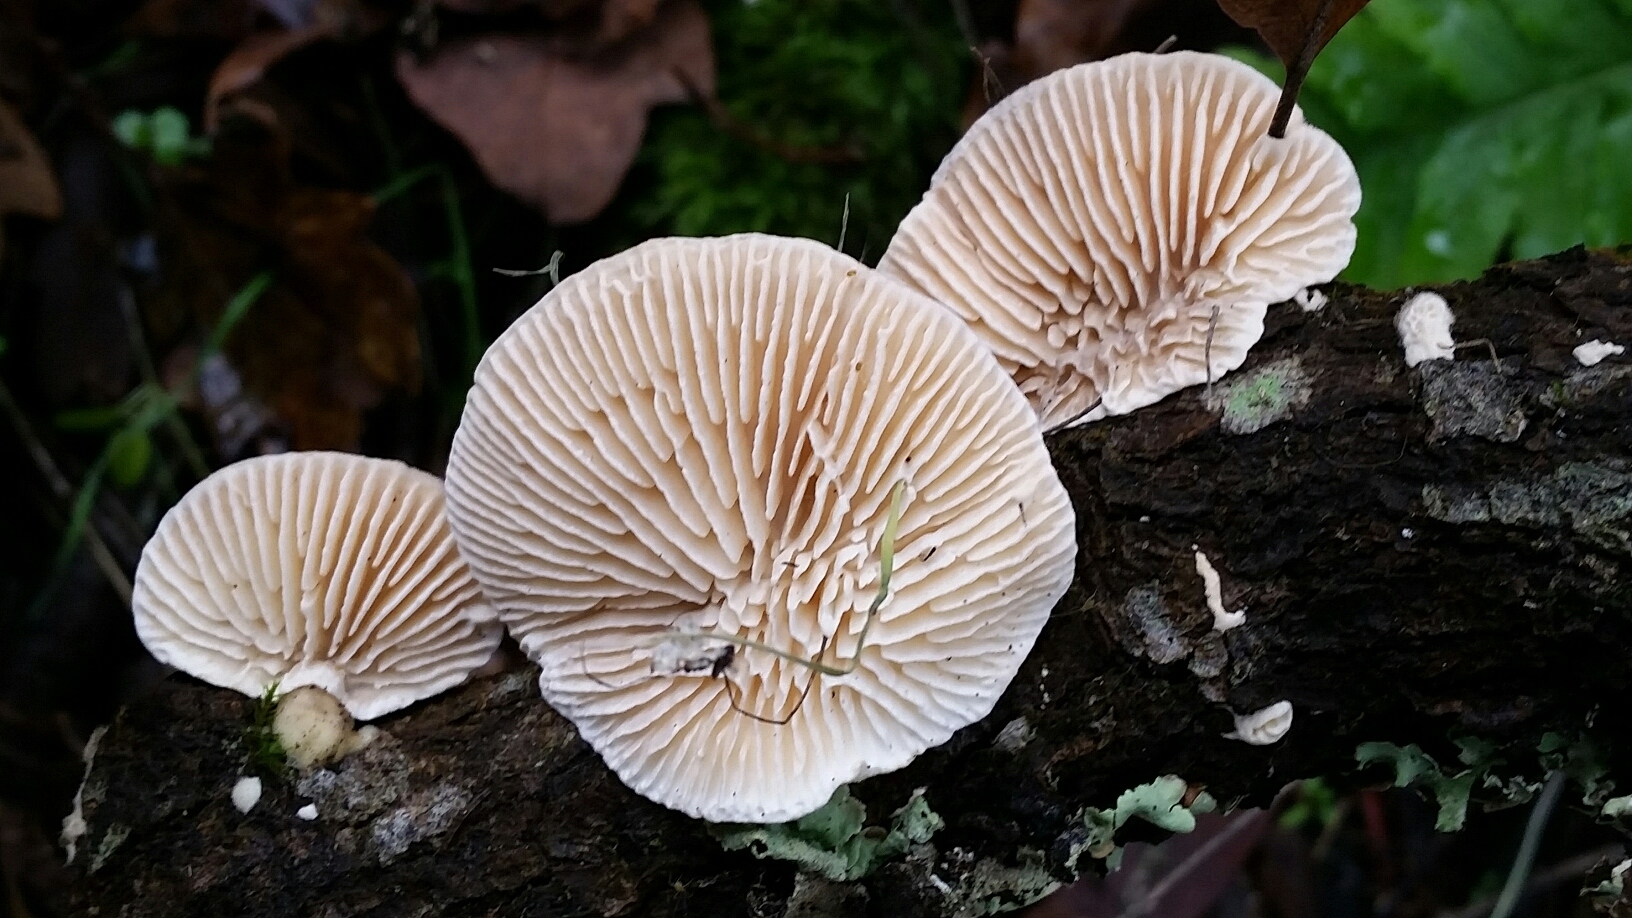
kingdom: Fungi
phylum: Basidiomycota
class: Agaricomycetes
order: Polyporales
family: Polyporaceae
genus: Lenzites
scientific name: Lenzites betulinus
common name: Birch mazegill
